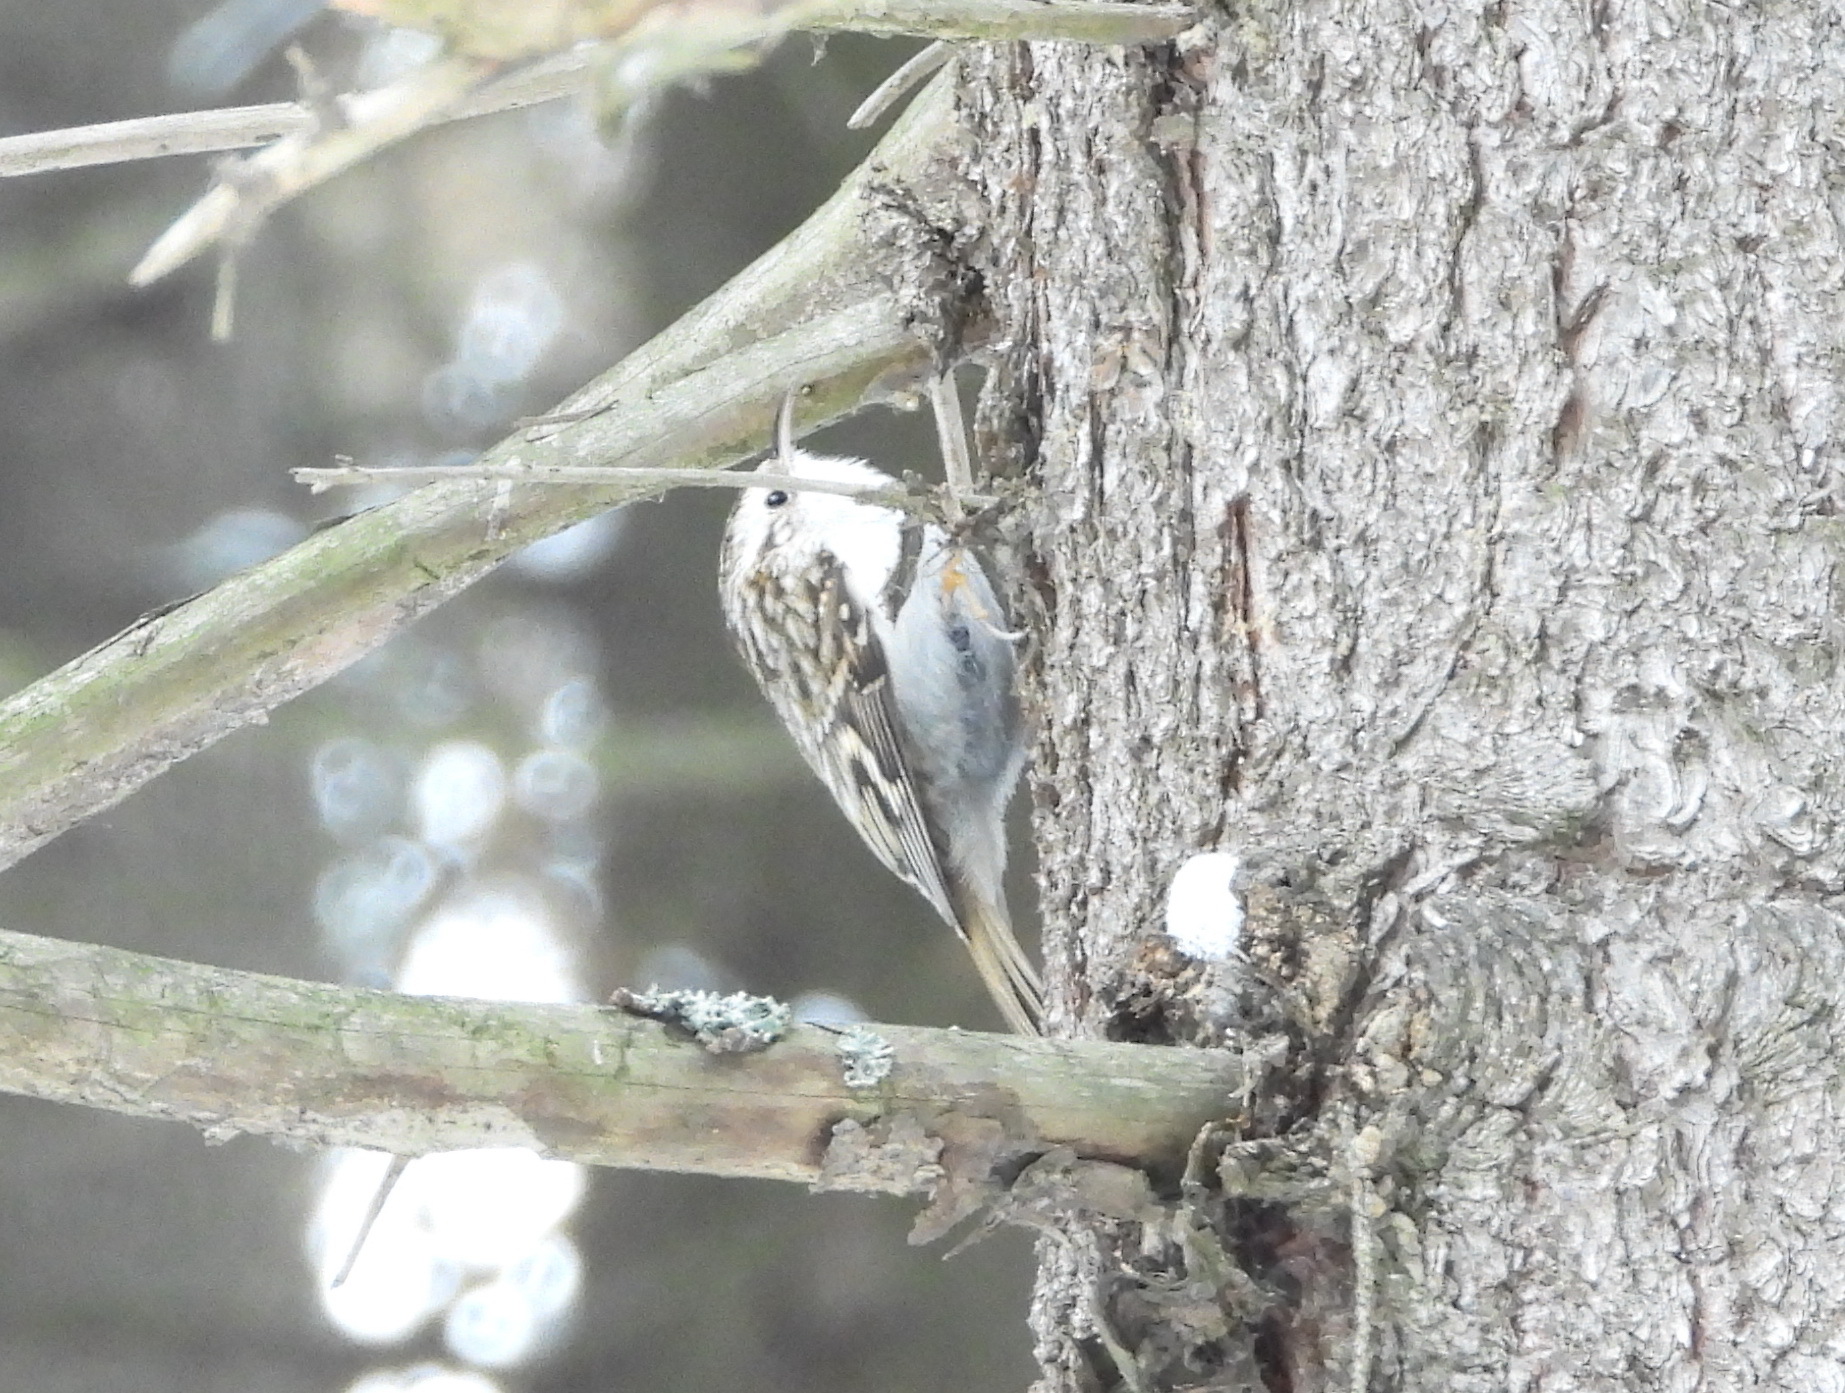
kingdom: Animalia
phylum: Chordata
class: Aves
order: Passeriformes
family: Certhiidae
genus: Certhia
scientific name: Certhia familiaris
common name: Eurasian treecreeper
